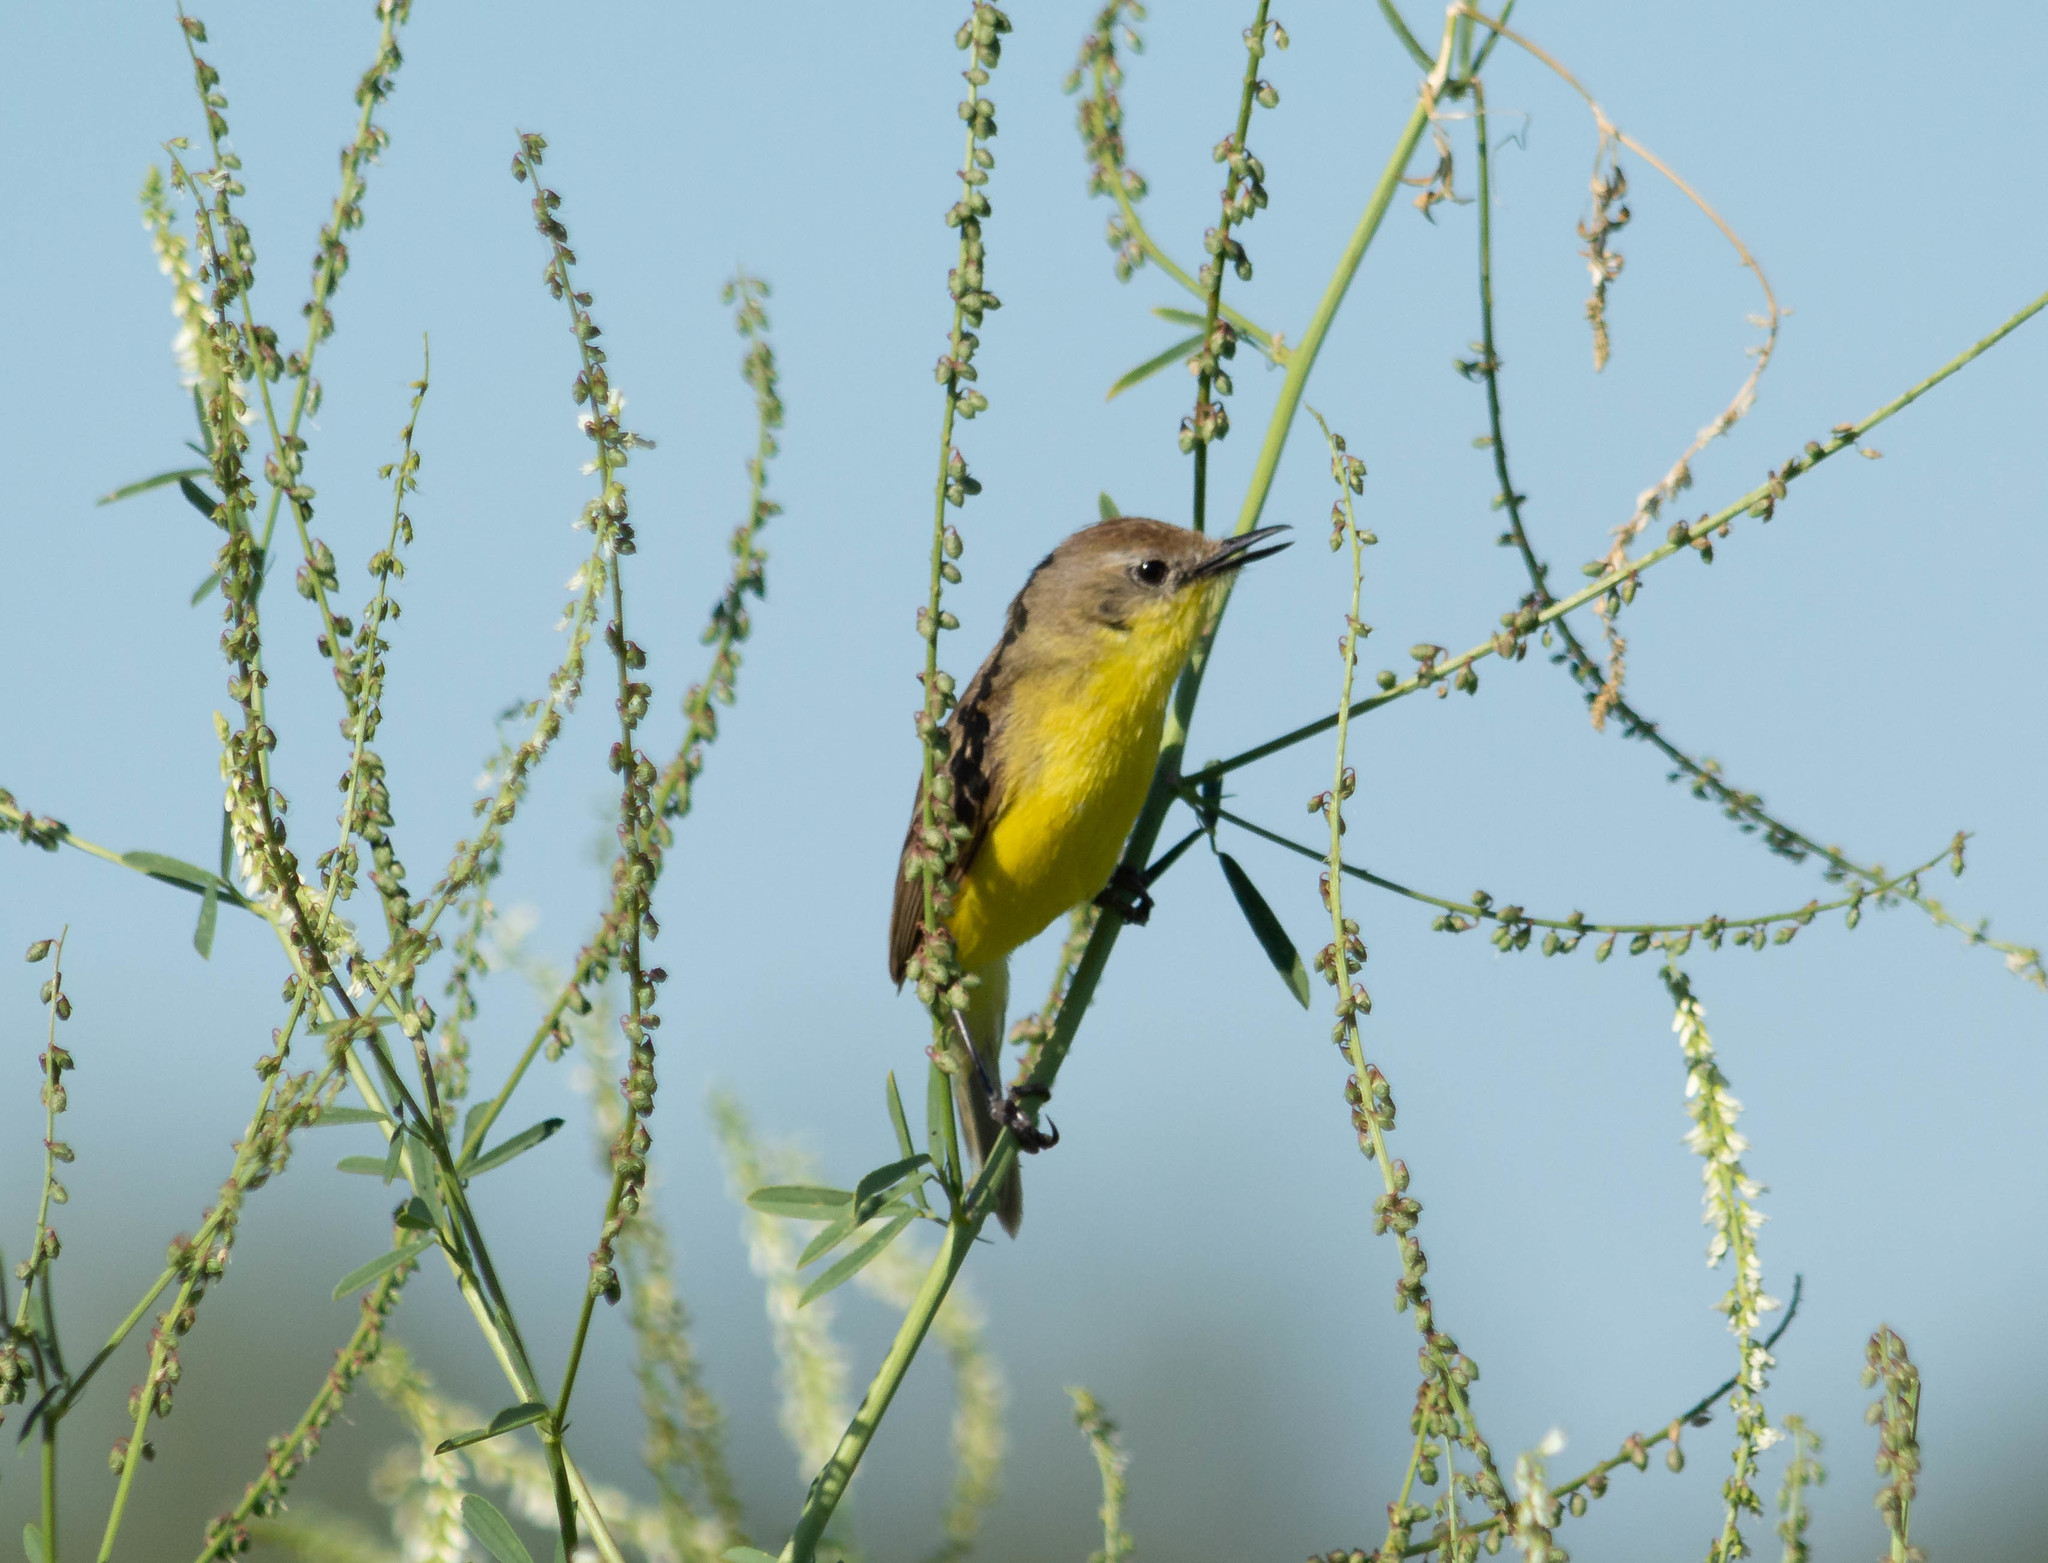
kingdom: Animalia
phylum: Chordata
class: Aves
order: Passeriformes
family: Tyrannidae
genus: Pseudocolopteryx
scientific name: Pseudocolopteryx dinelliana
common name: Dinelli's doradito
